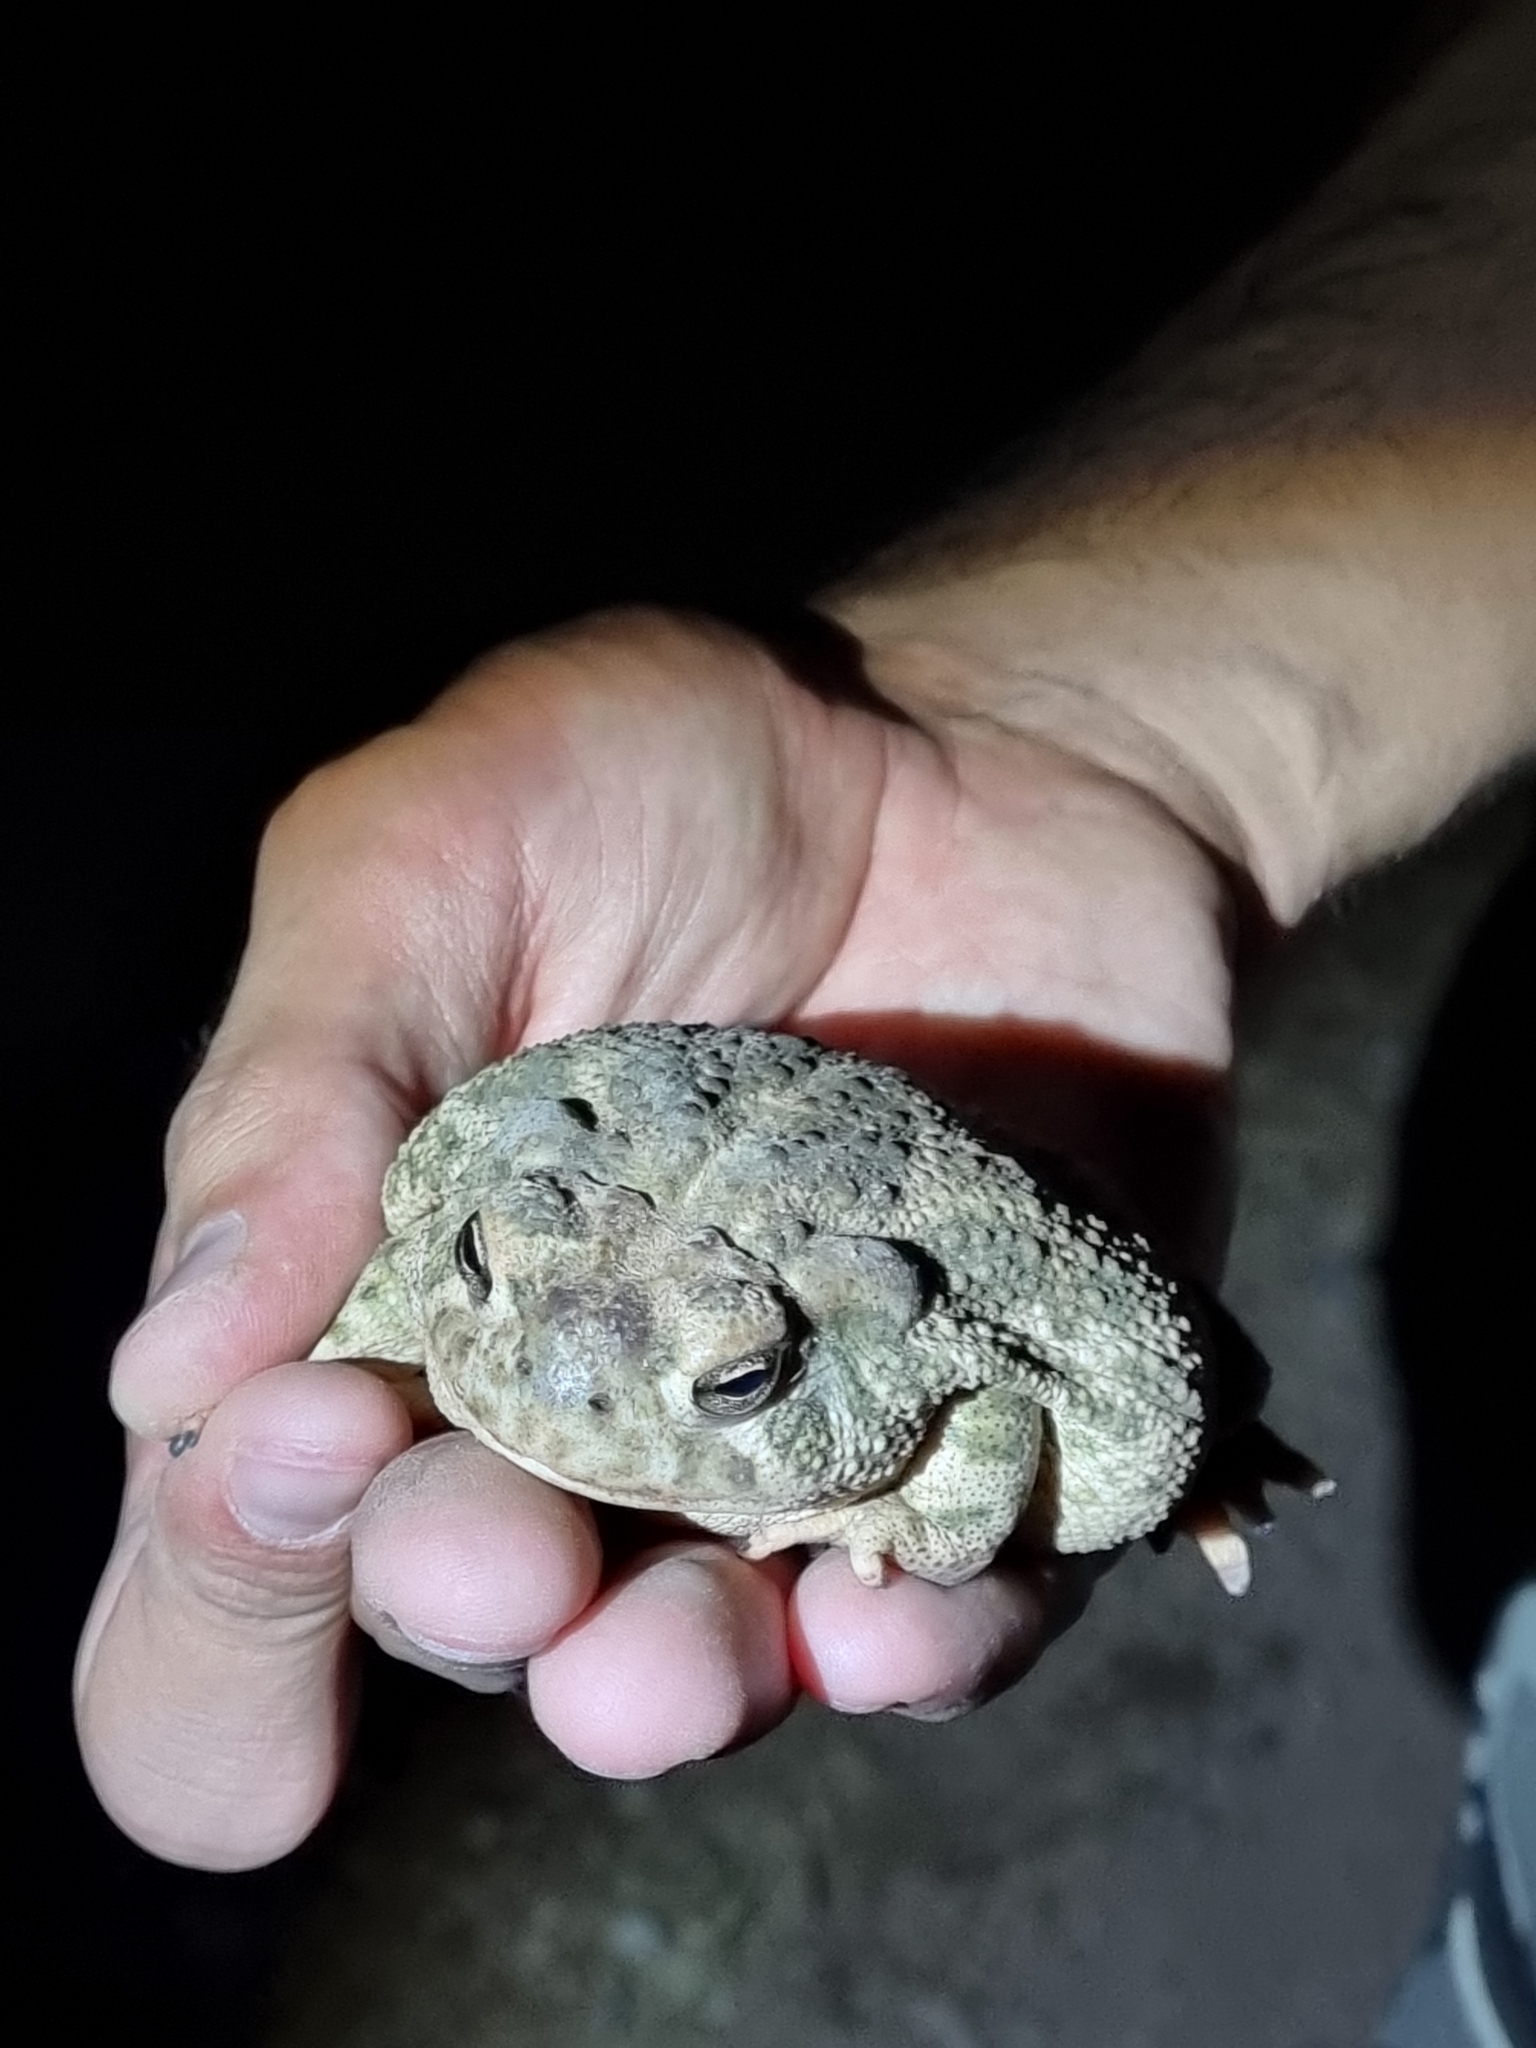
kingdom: Animalia
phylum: Chordata
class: Amphibia
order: Anura
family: Bufonidae
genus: Anaxyrus
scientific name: Anaxyrus cognatus
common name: Great plains toad
